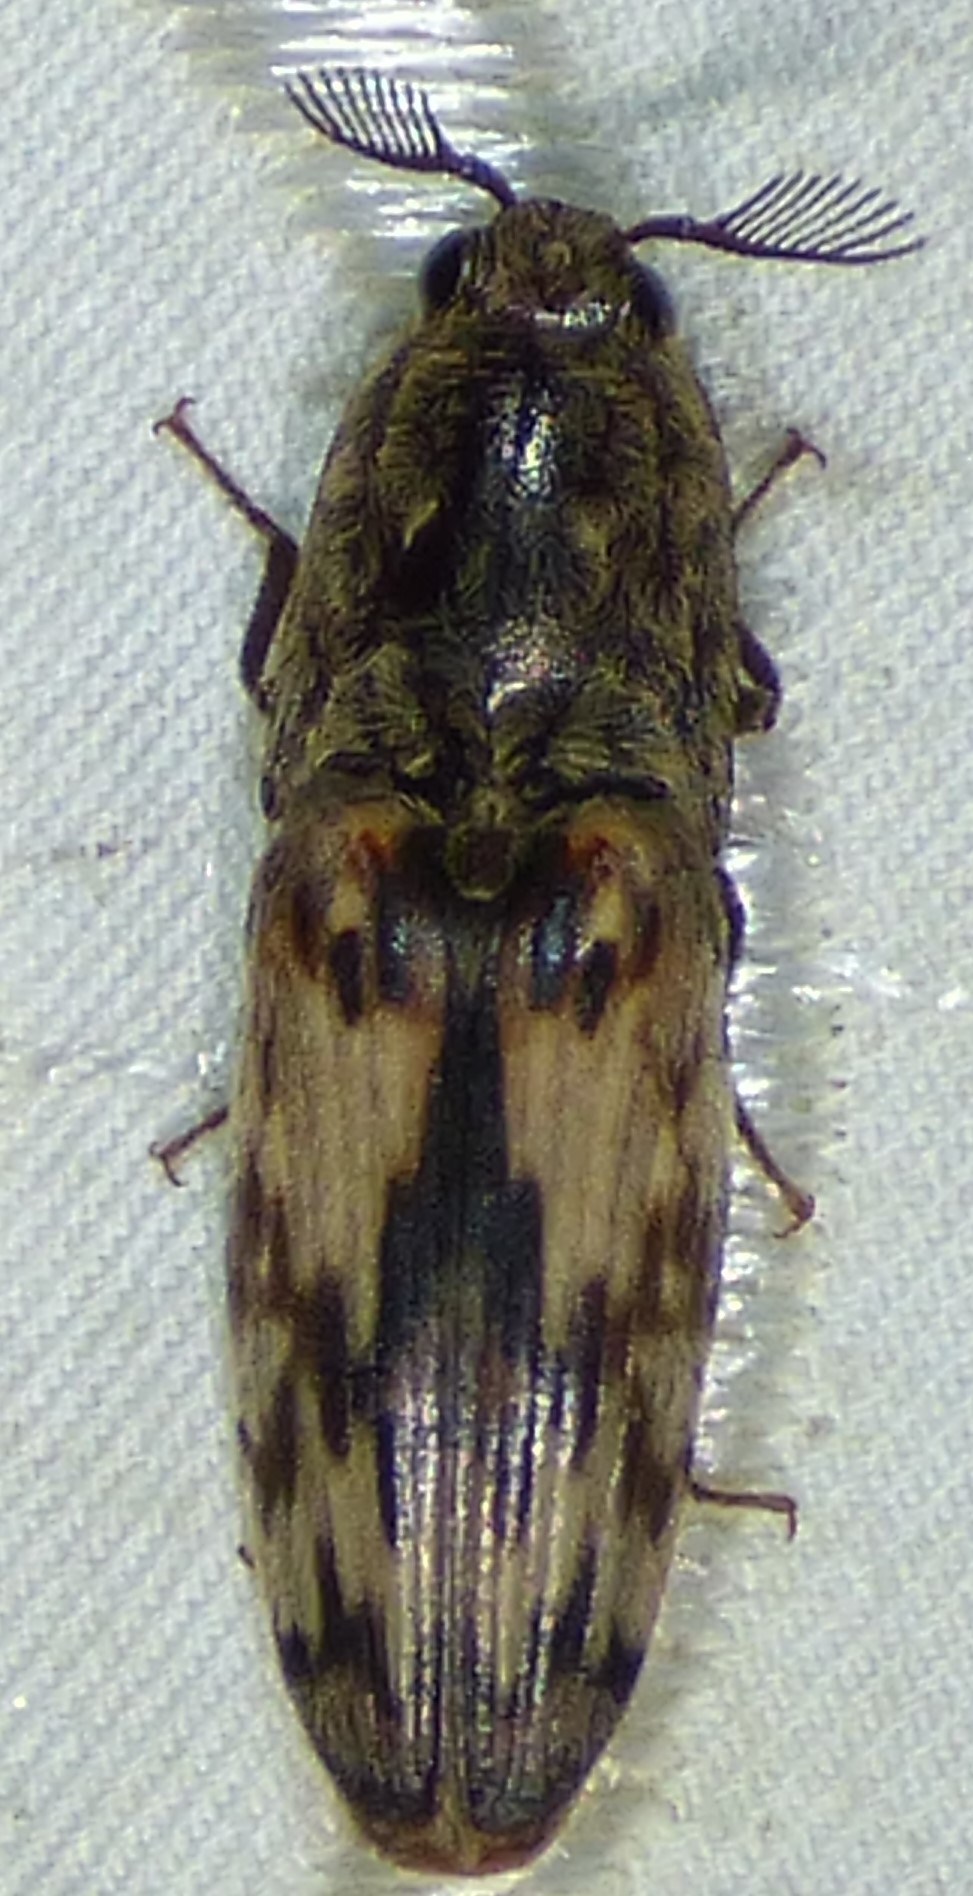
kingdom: Animalia
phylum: Arthropoda
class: Insecta
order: Coleoptera
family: Elateridae
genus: Pherhimius
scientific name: Pherhimius fascicularis
